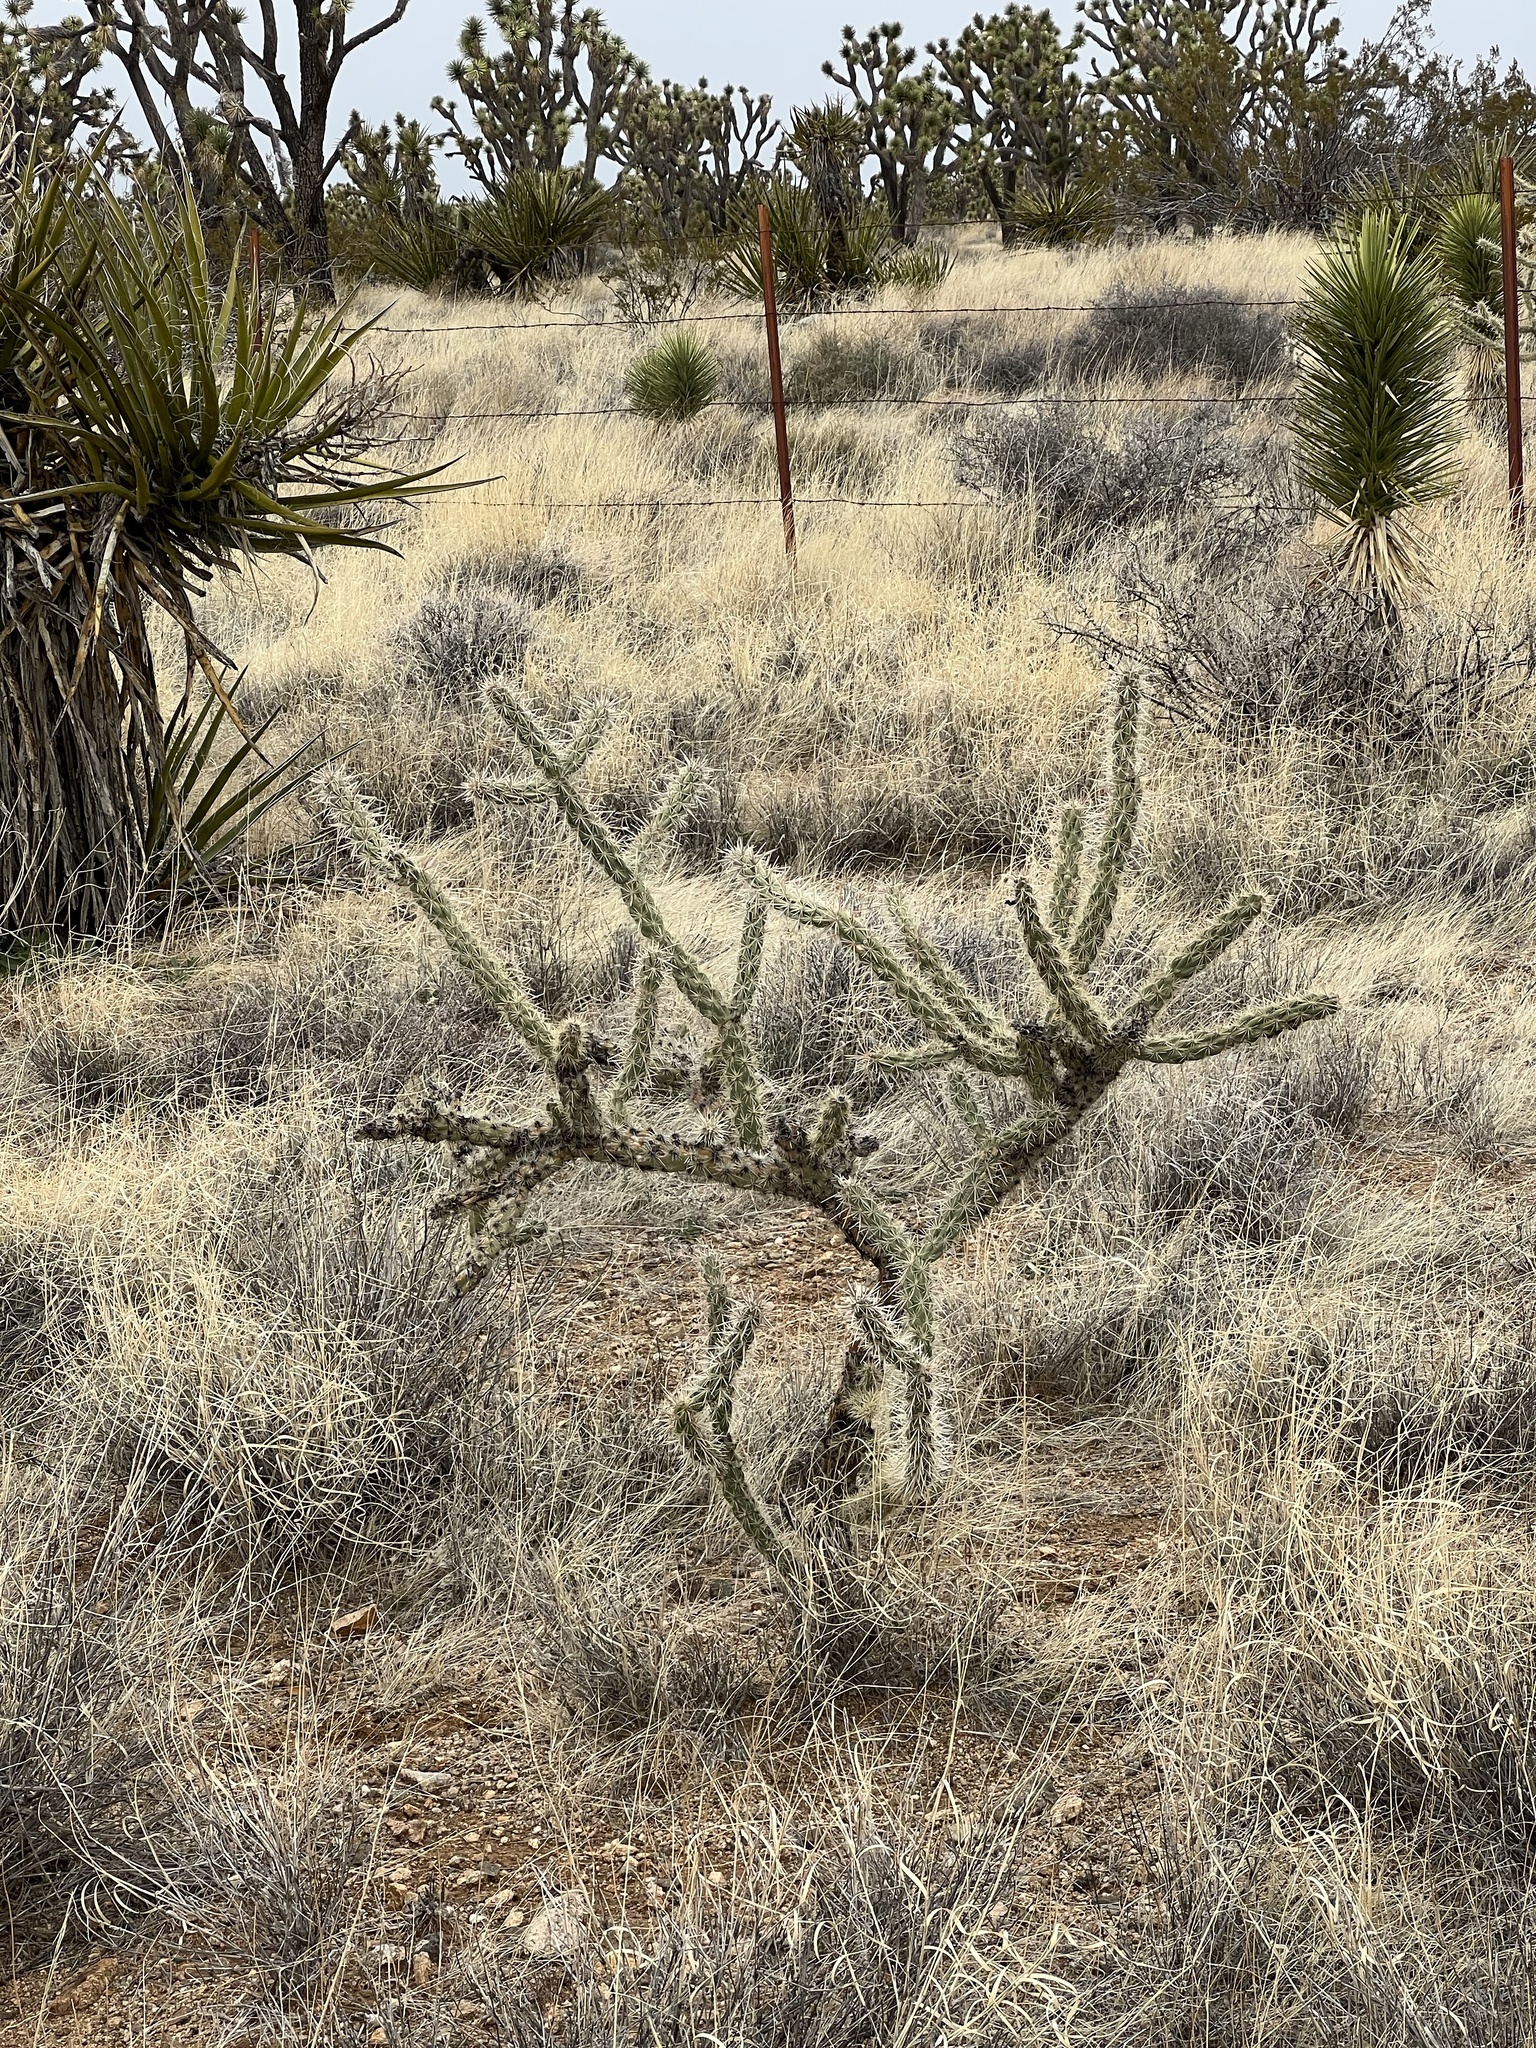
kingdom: Plantae
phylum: Tracheophyta
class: Magnoliopsida
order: Caryophyllales
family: Cactaceae
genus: Cylindropuntia
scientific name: Cylindropuntia acanthocarpa
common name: Buckhorn cholla
